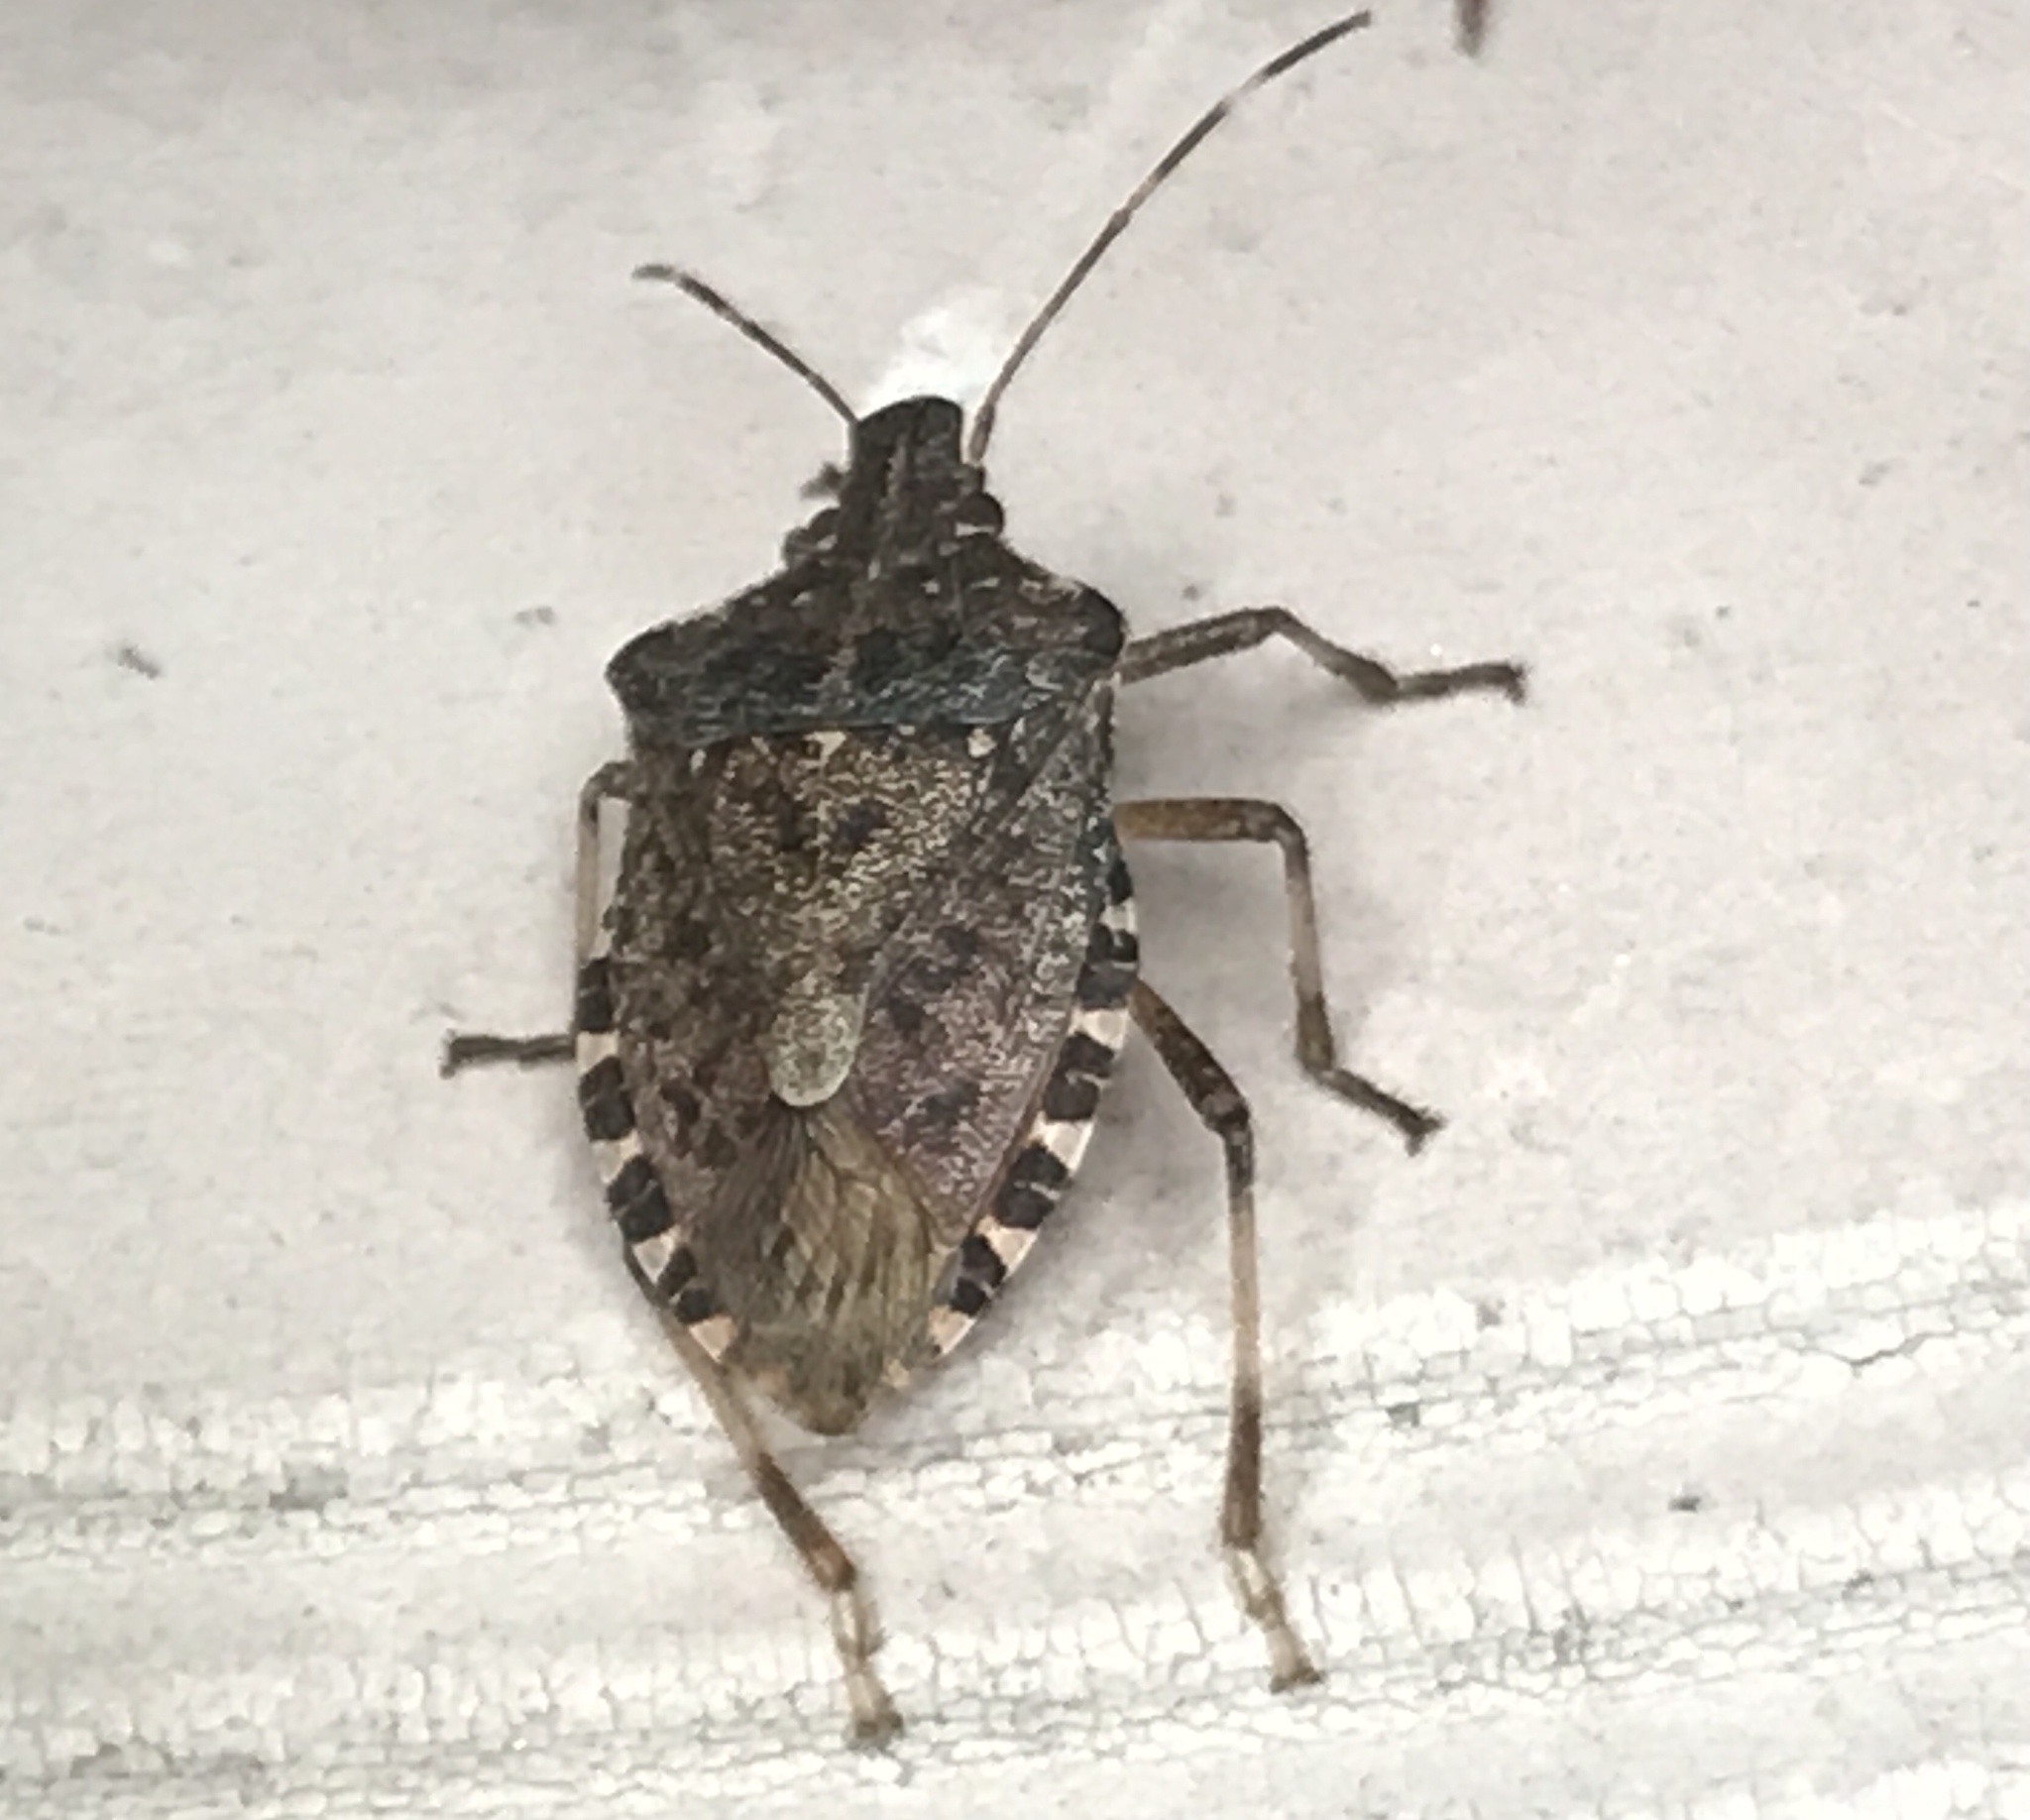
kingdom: Animalia
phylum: Arthropoda
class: Insecta
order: Hemiptera
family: Pentatomidae
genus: Halyomorpha
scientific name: Halyomorpha halys
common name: Brown marmorated stink bug
